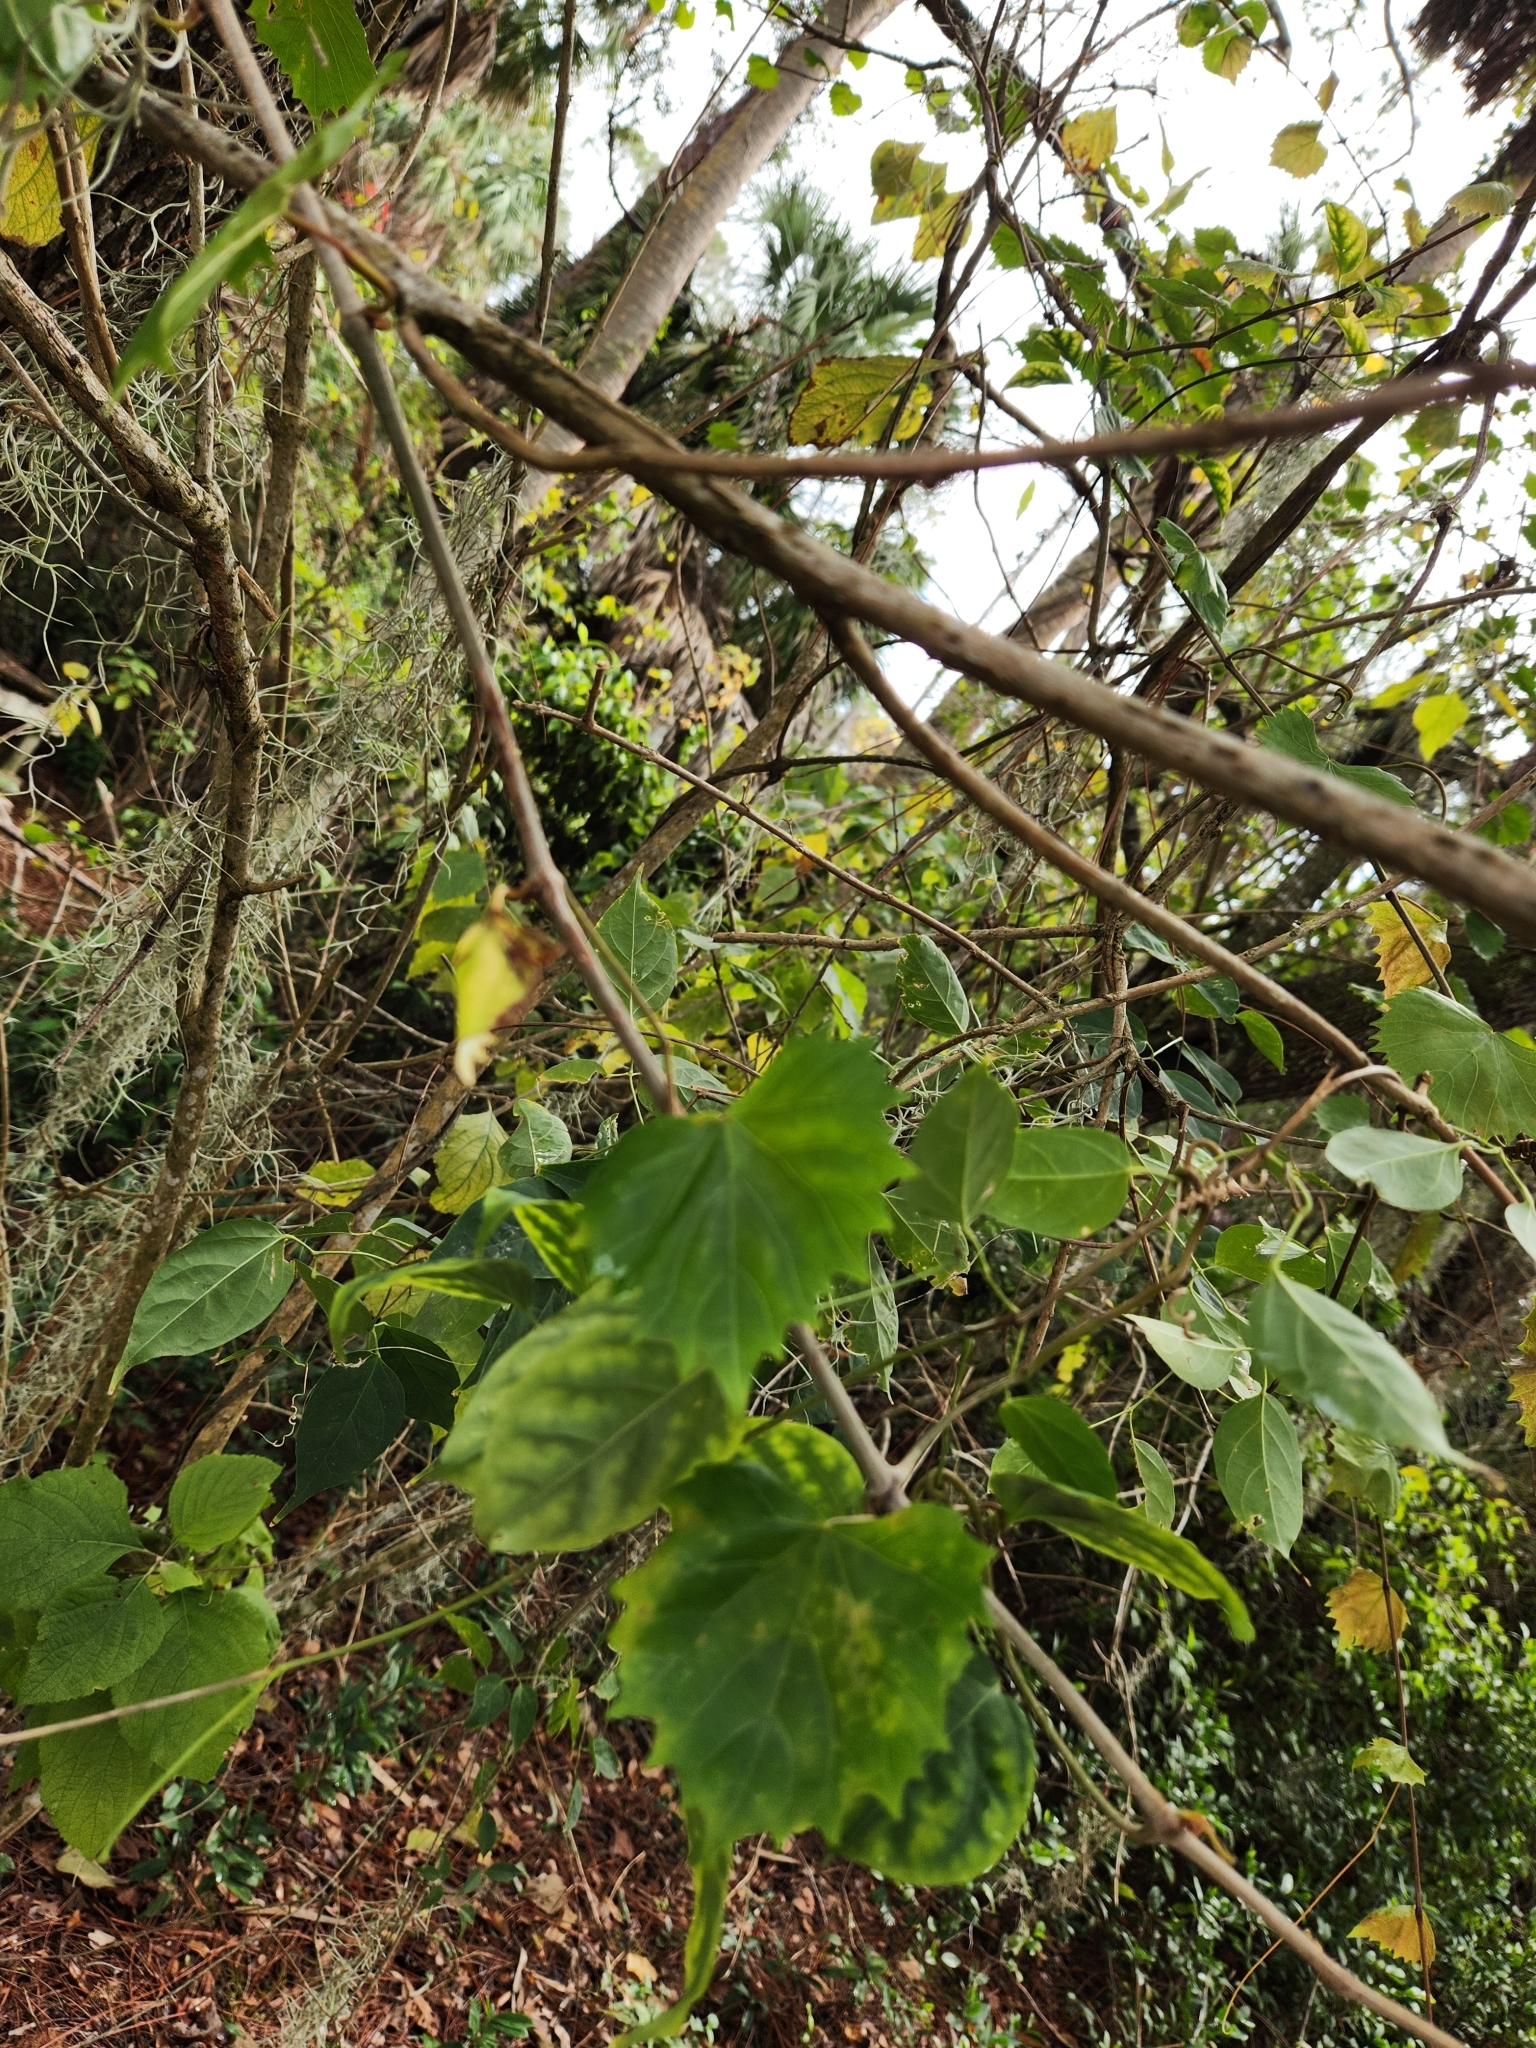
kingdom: Plantae
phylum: Tracheophyta
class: Magnoliopsida
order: Vitales
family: Vitaceae
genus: Vitis
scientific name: Vitis rotundifolia
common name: Muscadine grape
